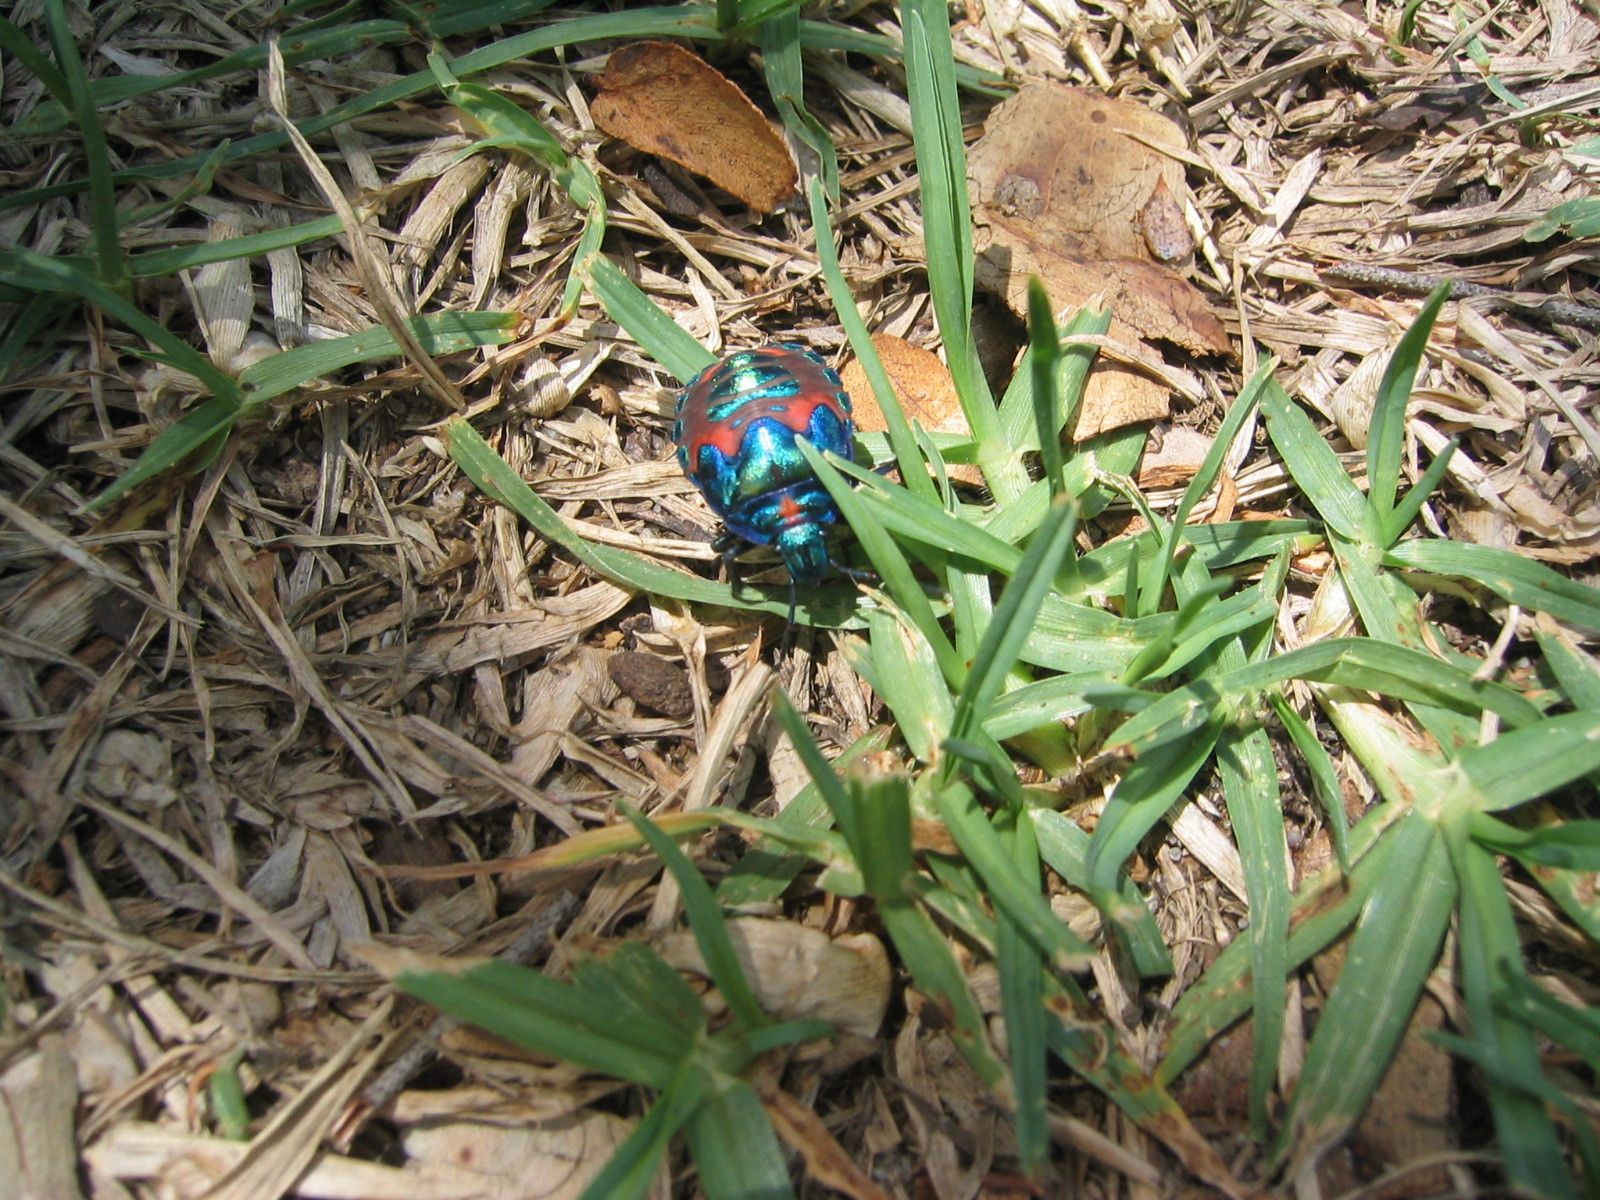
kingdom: Animalia
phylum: Arthropoda
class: Insecta
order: Hemiptera
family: Scutelleridae
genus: Tectocoris
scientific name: Tectocoris diophthalmus
